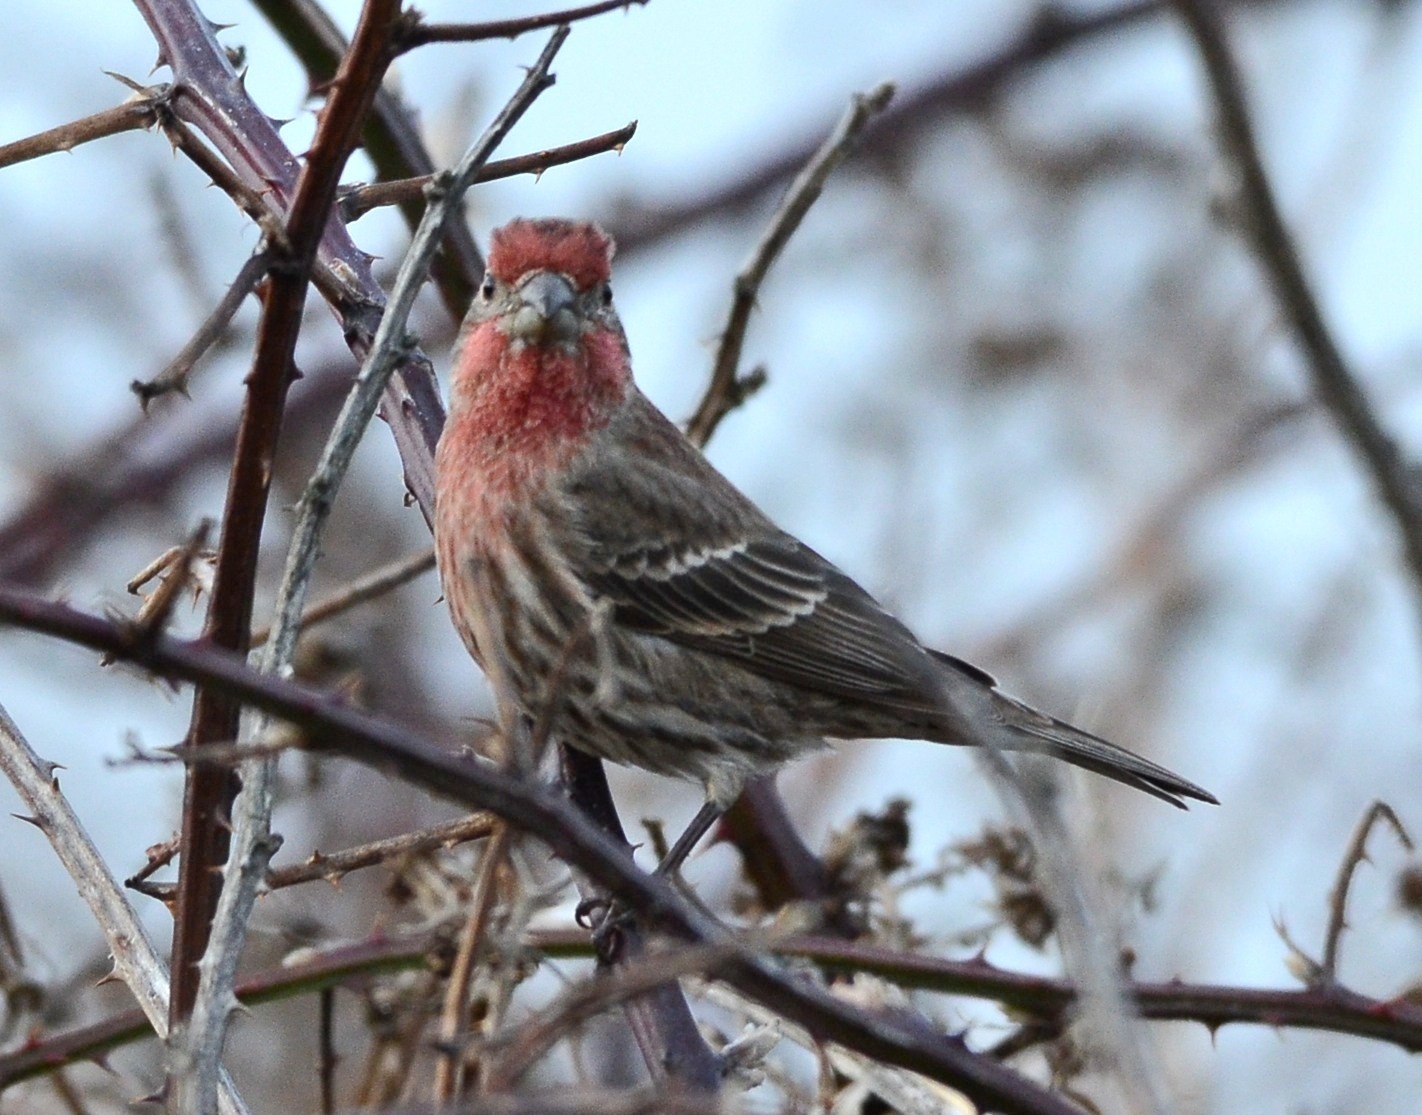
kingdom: Animalia
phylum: Chordata
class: Aves
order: Passeriformes
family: Fringillidae
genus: Haemorhous
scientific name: Haemorhous mexicanus
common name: House finch
